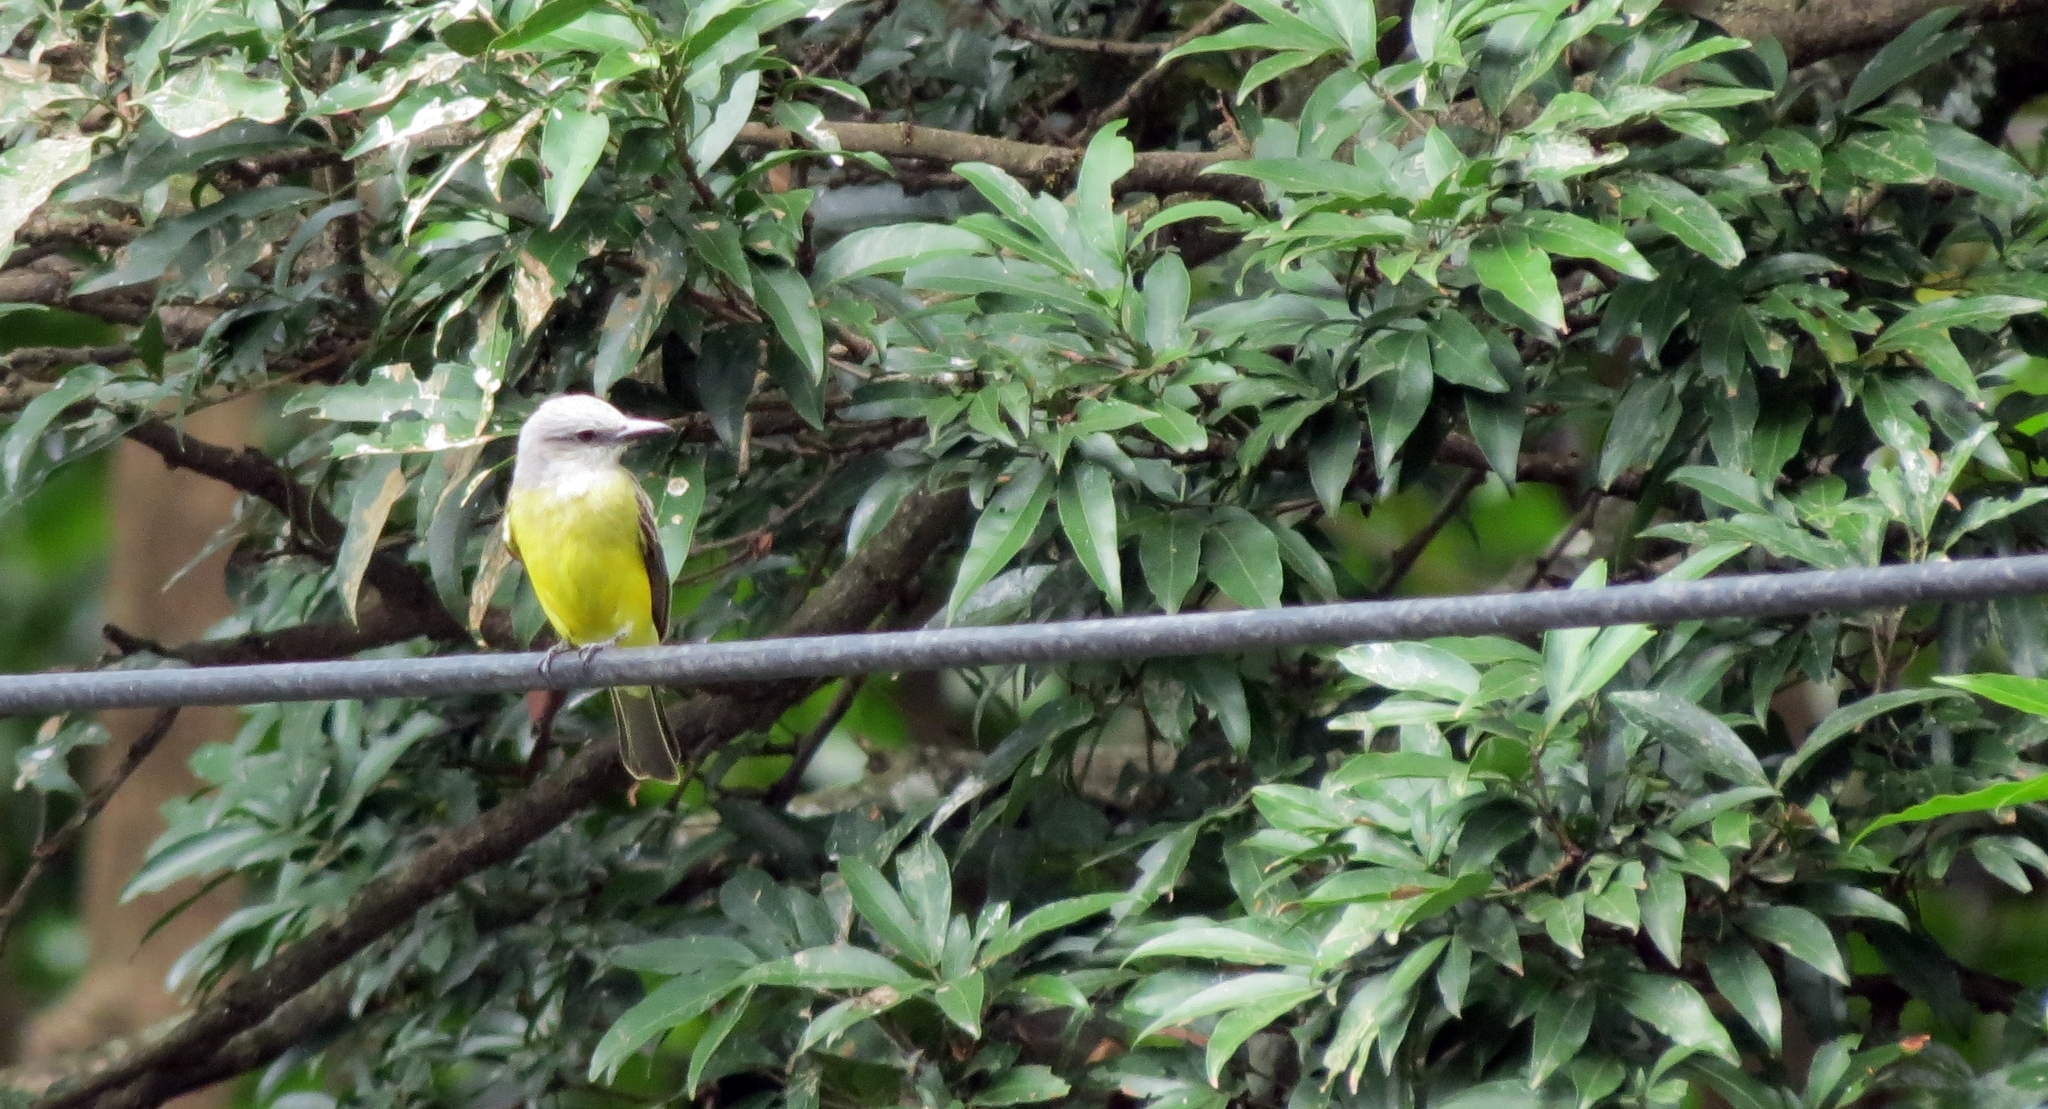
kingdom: Animalia
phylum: Chordata
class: Aves
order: Passeriformes
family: Tyrannidae
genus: Tyrannus
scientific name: Tyrannus melancholicus
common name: Tropical kingbird
